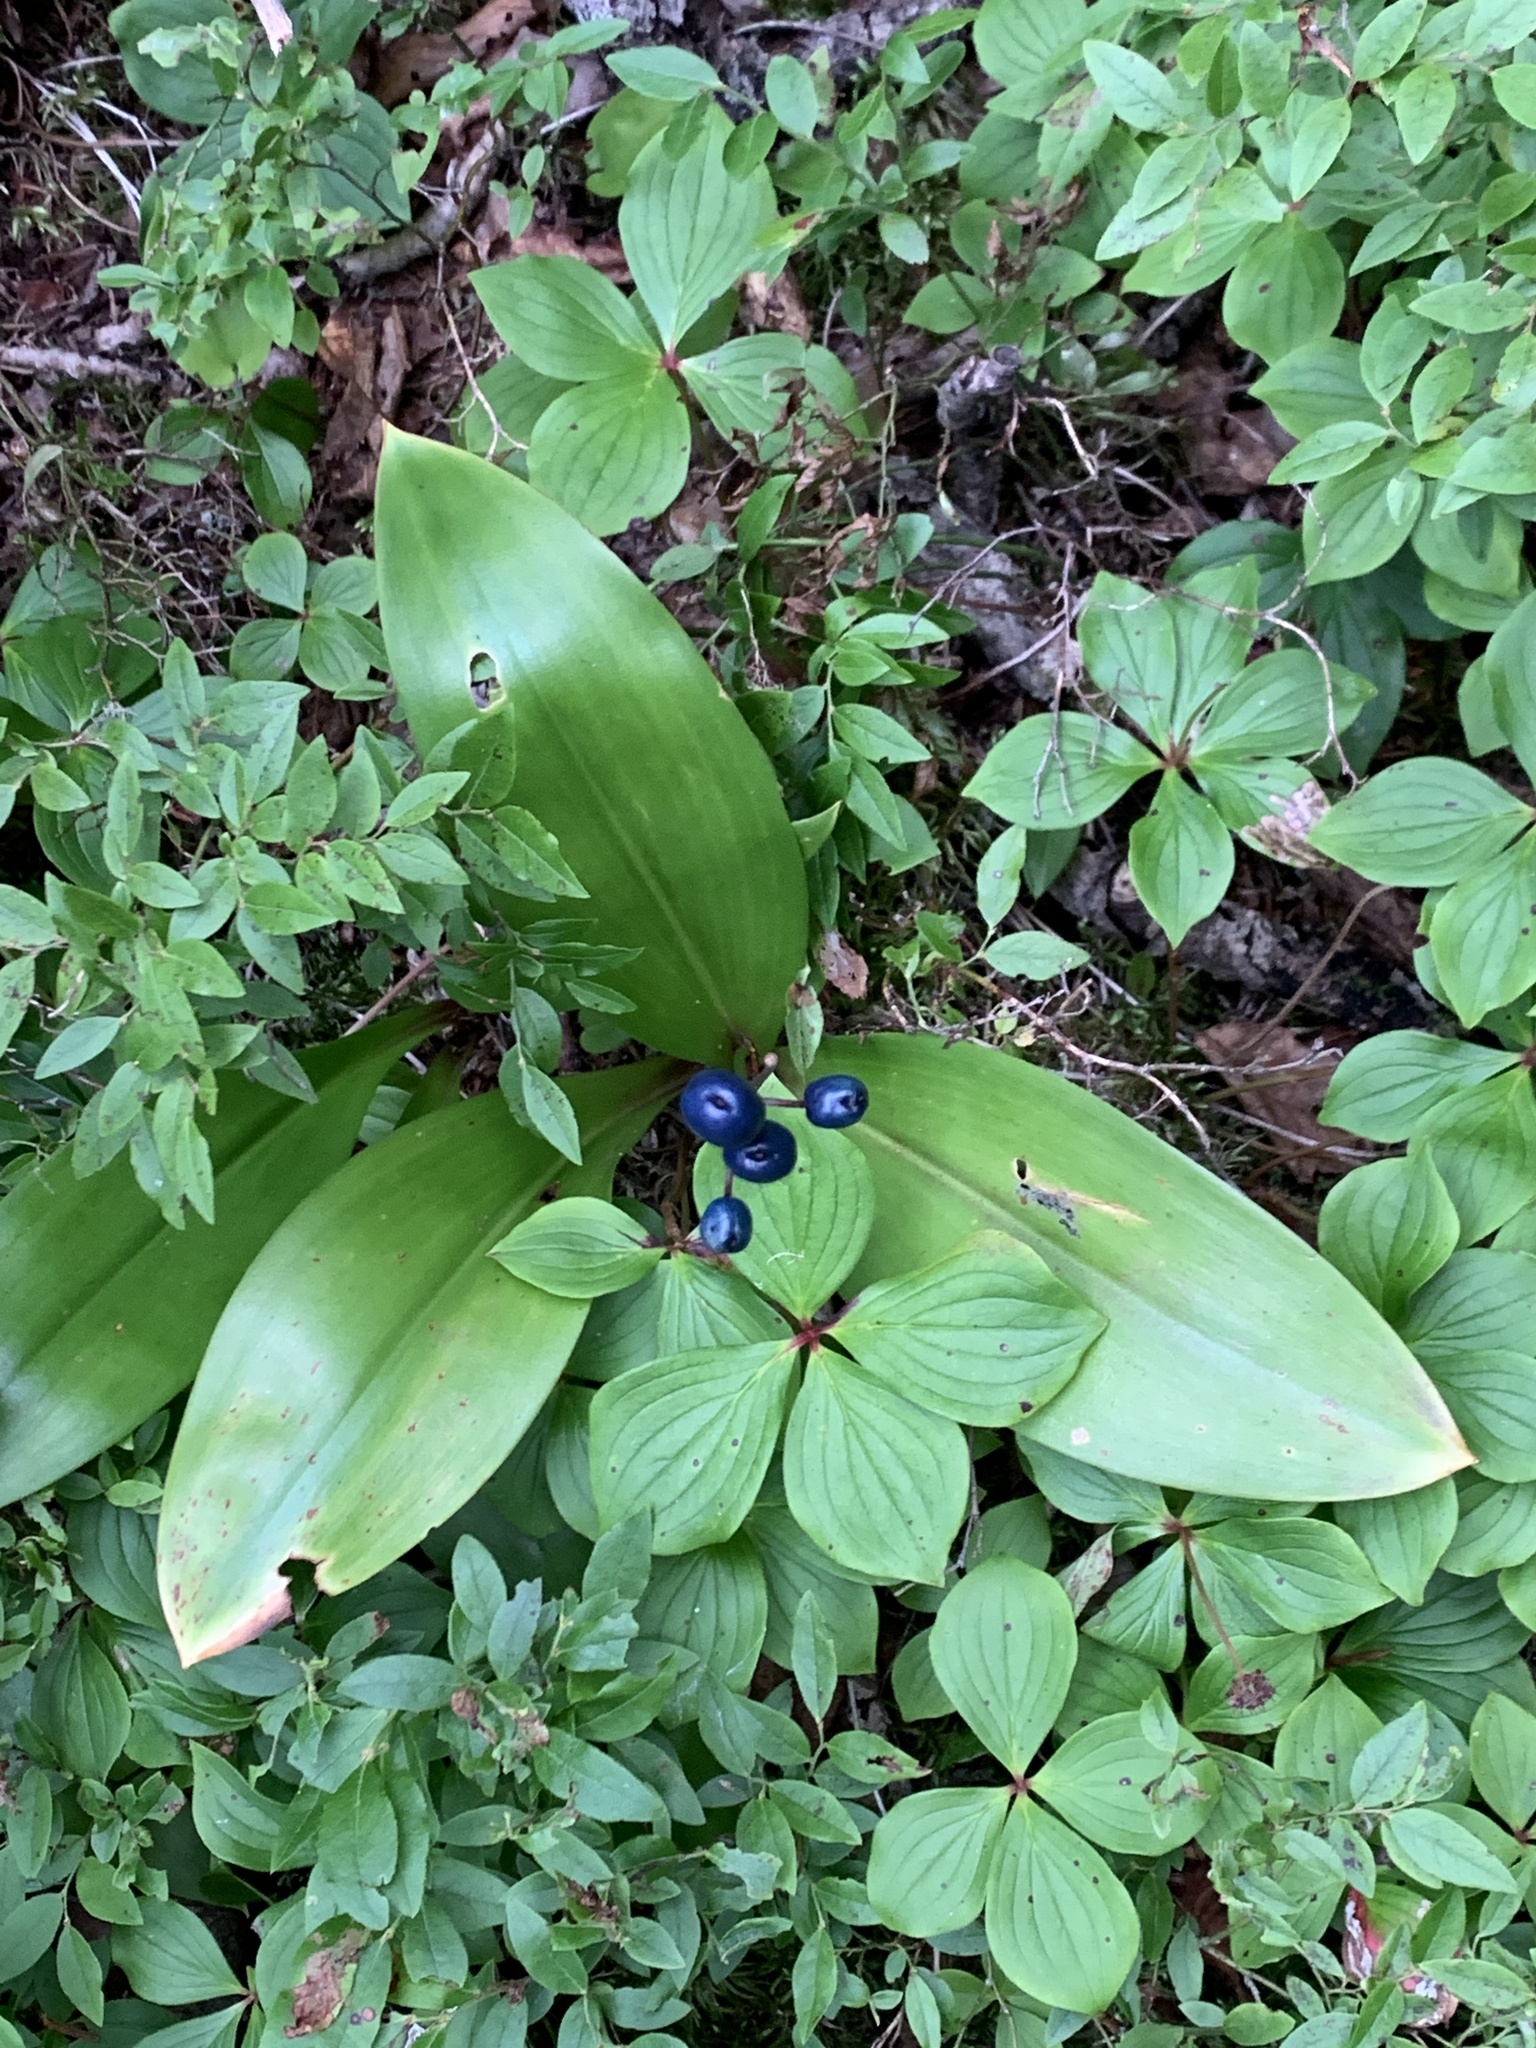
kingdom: Plantae
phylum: Tracheophyta
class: Liliopsida
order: Liliales
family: Liliaceae
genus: Clintonia
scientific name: Clintonia borealis
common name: Yellow clintonia
